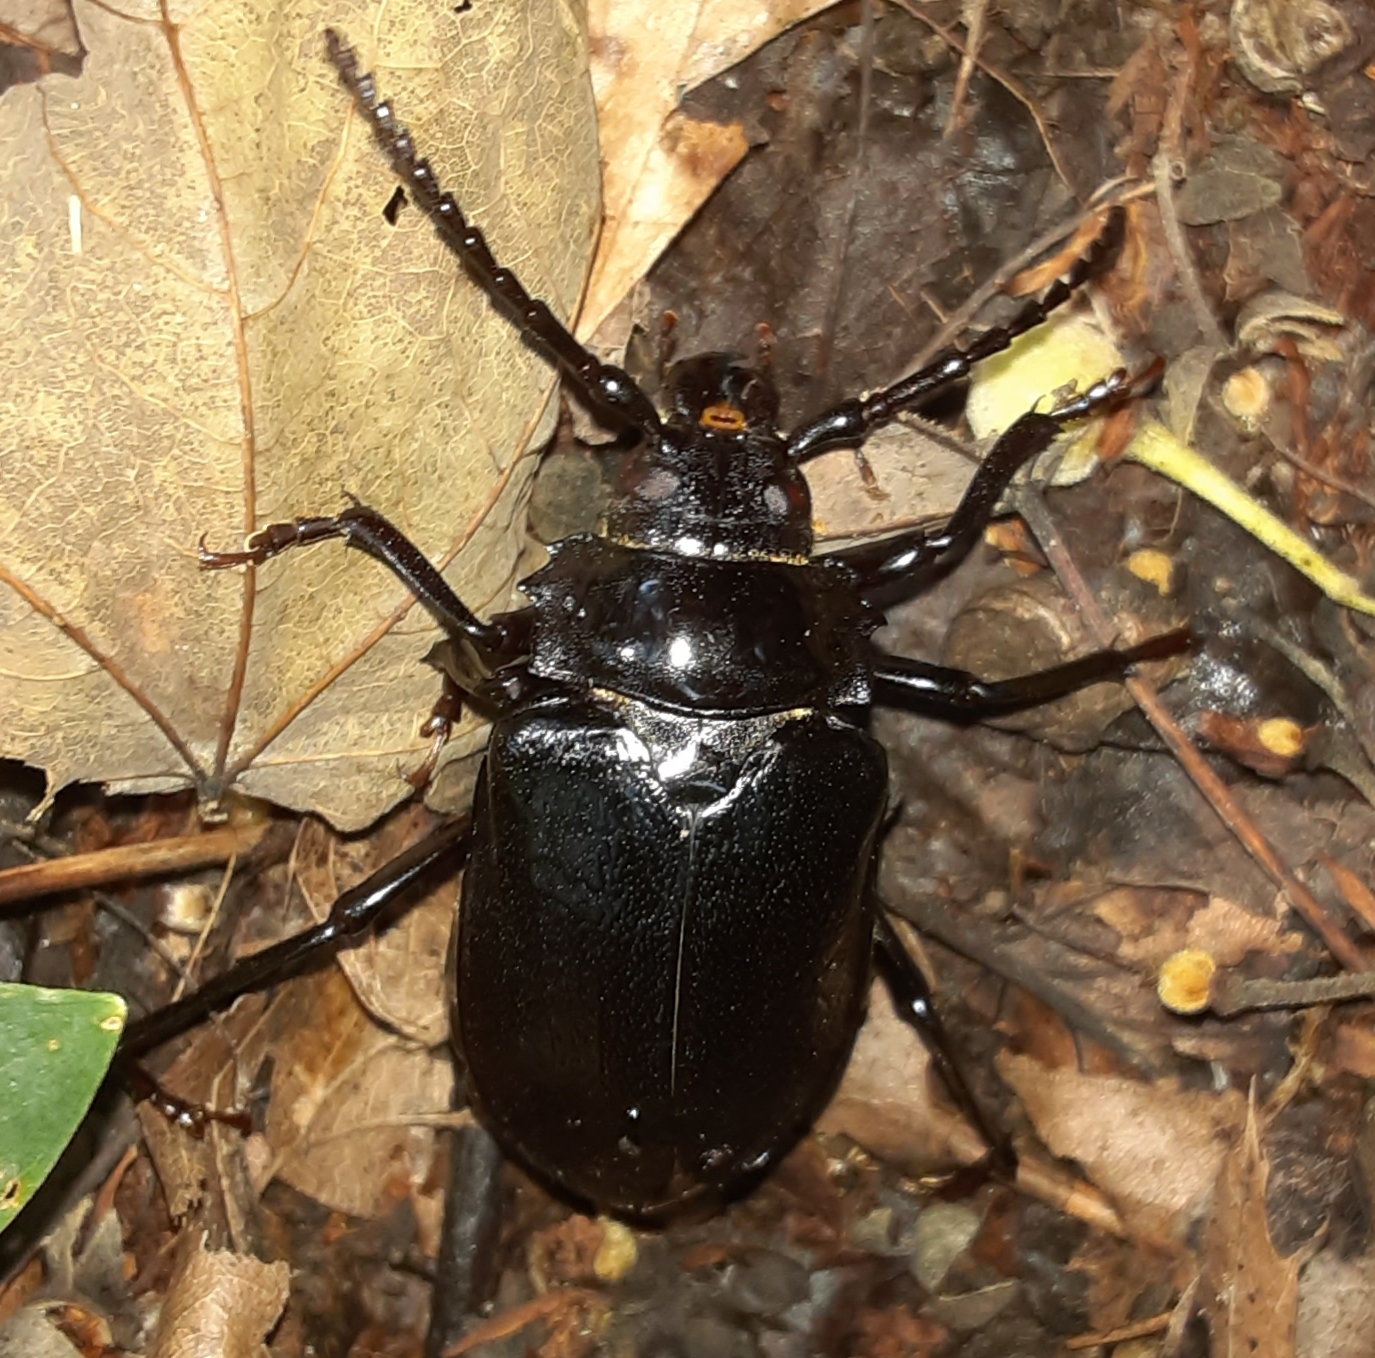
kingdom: Animalia
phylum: Arthropoda
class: Insecta
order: Coleoptera
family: Cerambycidae
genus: Prionus
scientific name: Prionus laticollis
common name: Broad necked prionus
